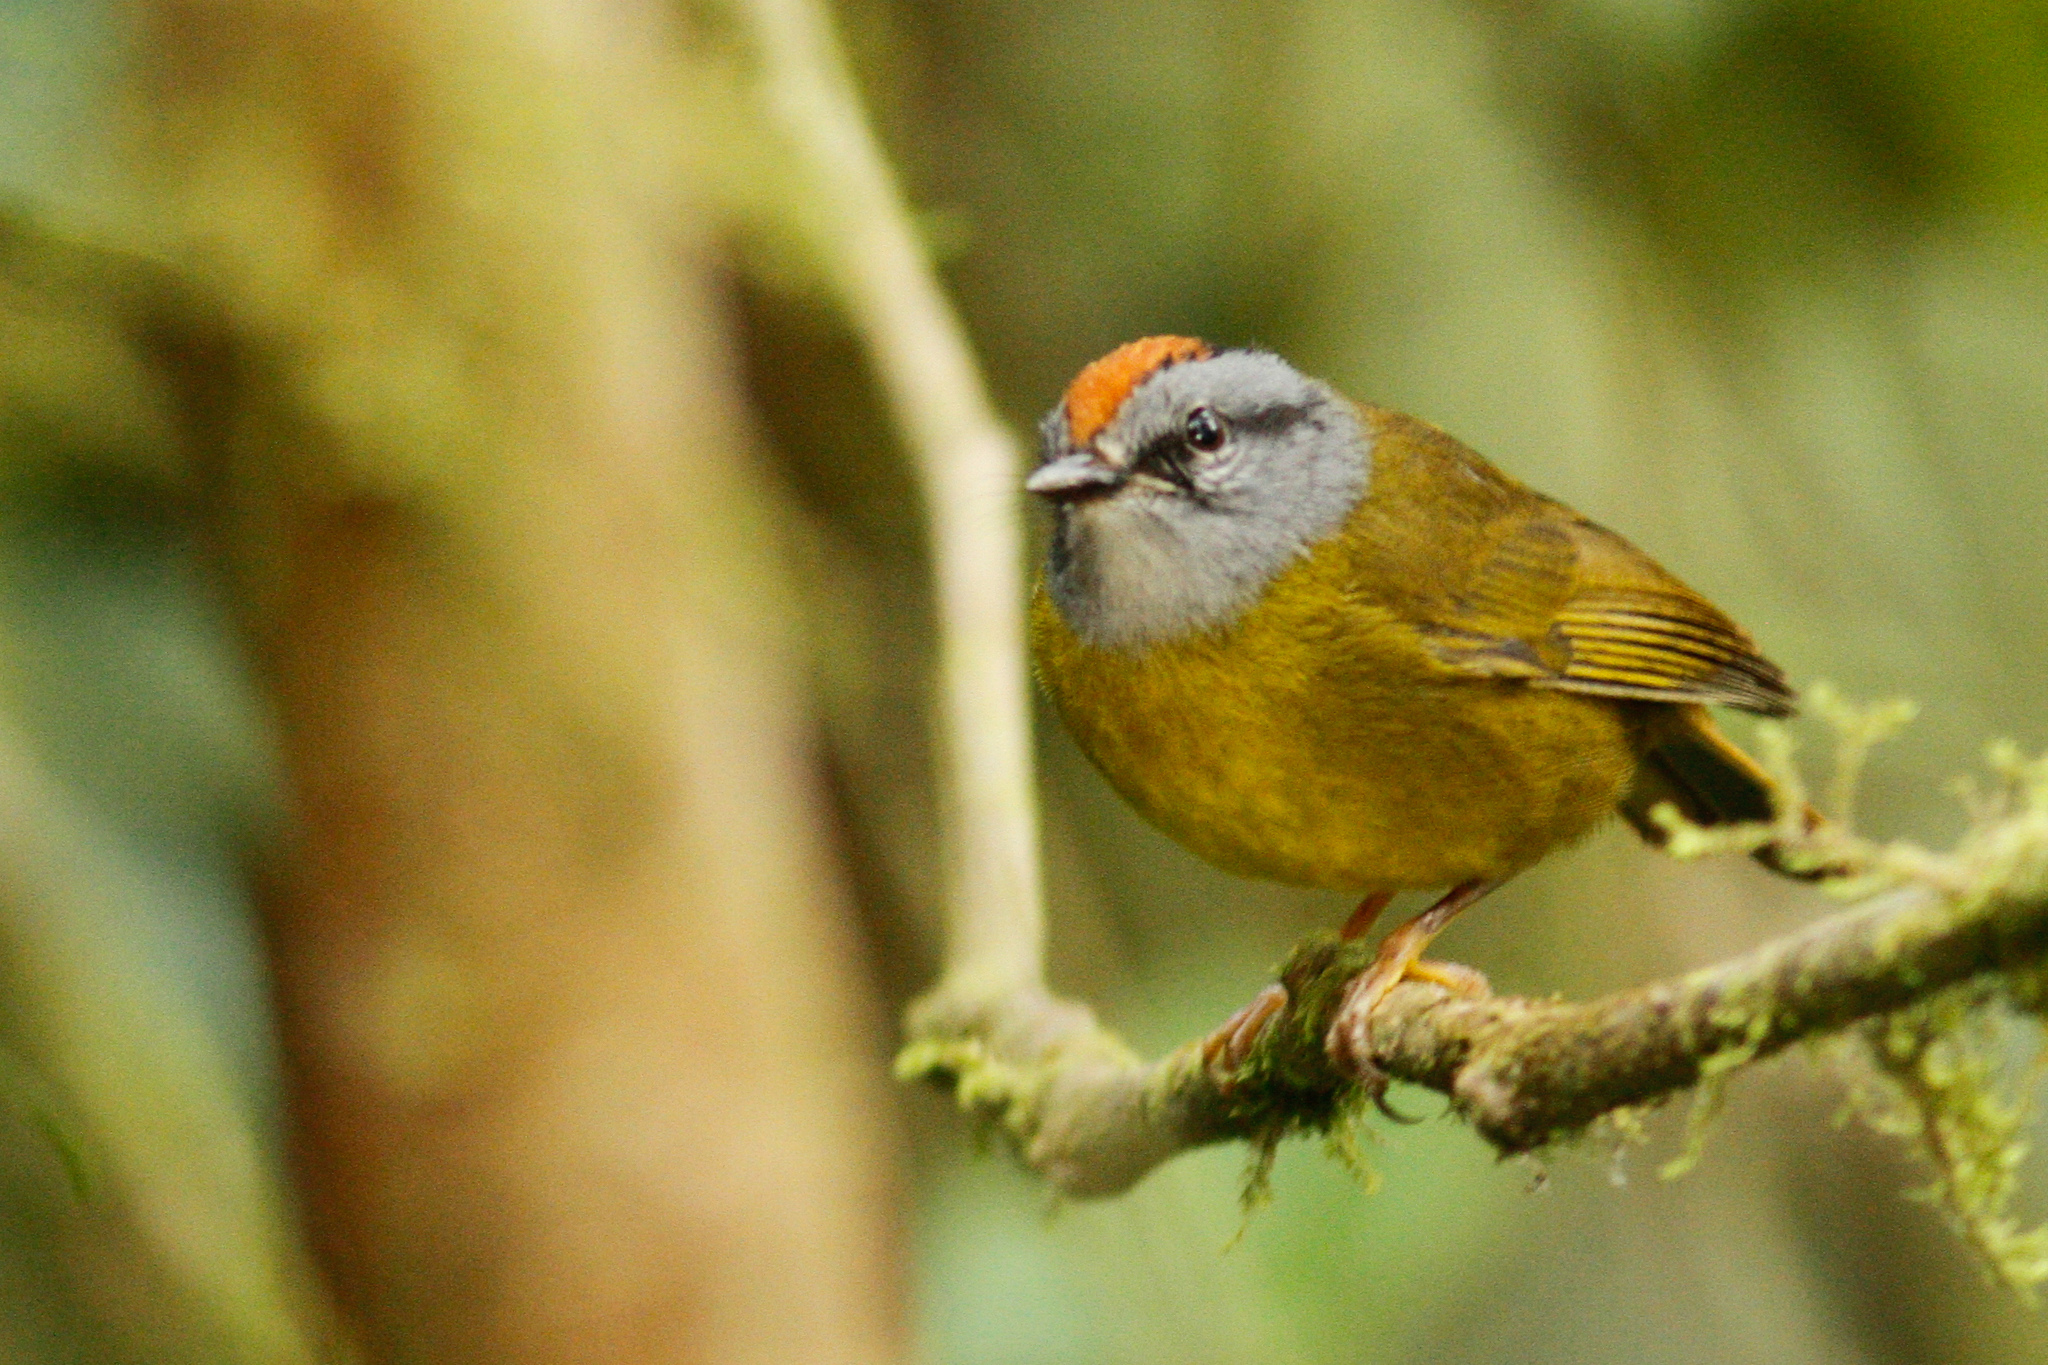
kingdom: Animalia
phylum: Chordata
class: Aves
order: Passeriformes
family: Parulidae
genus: Myiothlypis
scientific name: Myiothlypis coronata
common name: Russet-crowned warbler
